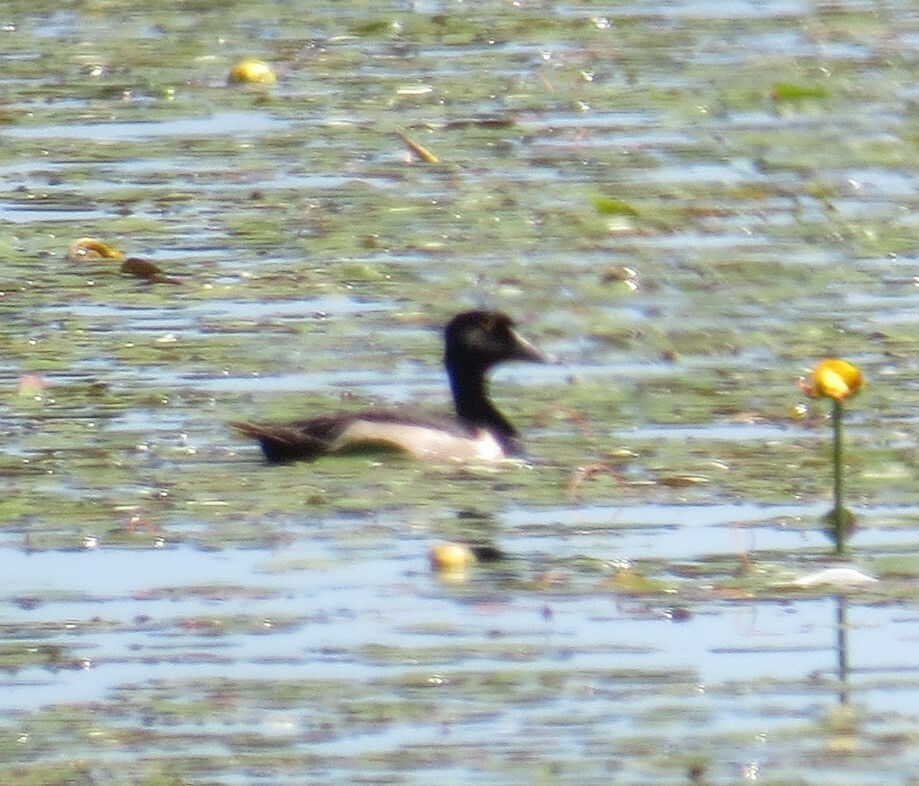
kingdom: Animalia
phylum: Chordata
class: Aves
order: Anseriformes
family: Anatidae
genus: Aythya
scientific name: Aythya collaris
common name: Ring-necked duck
